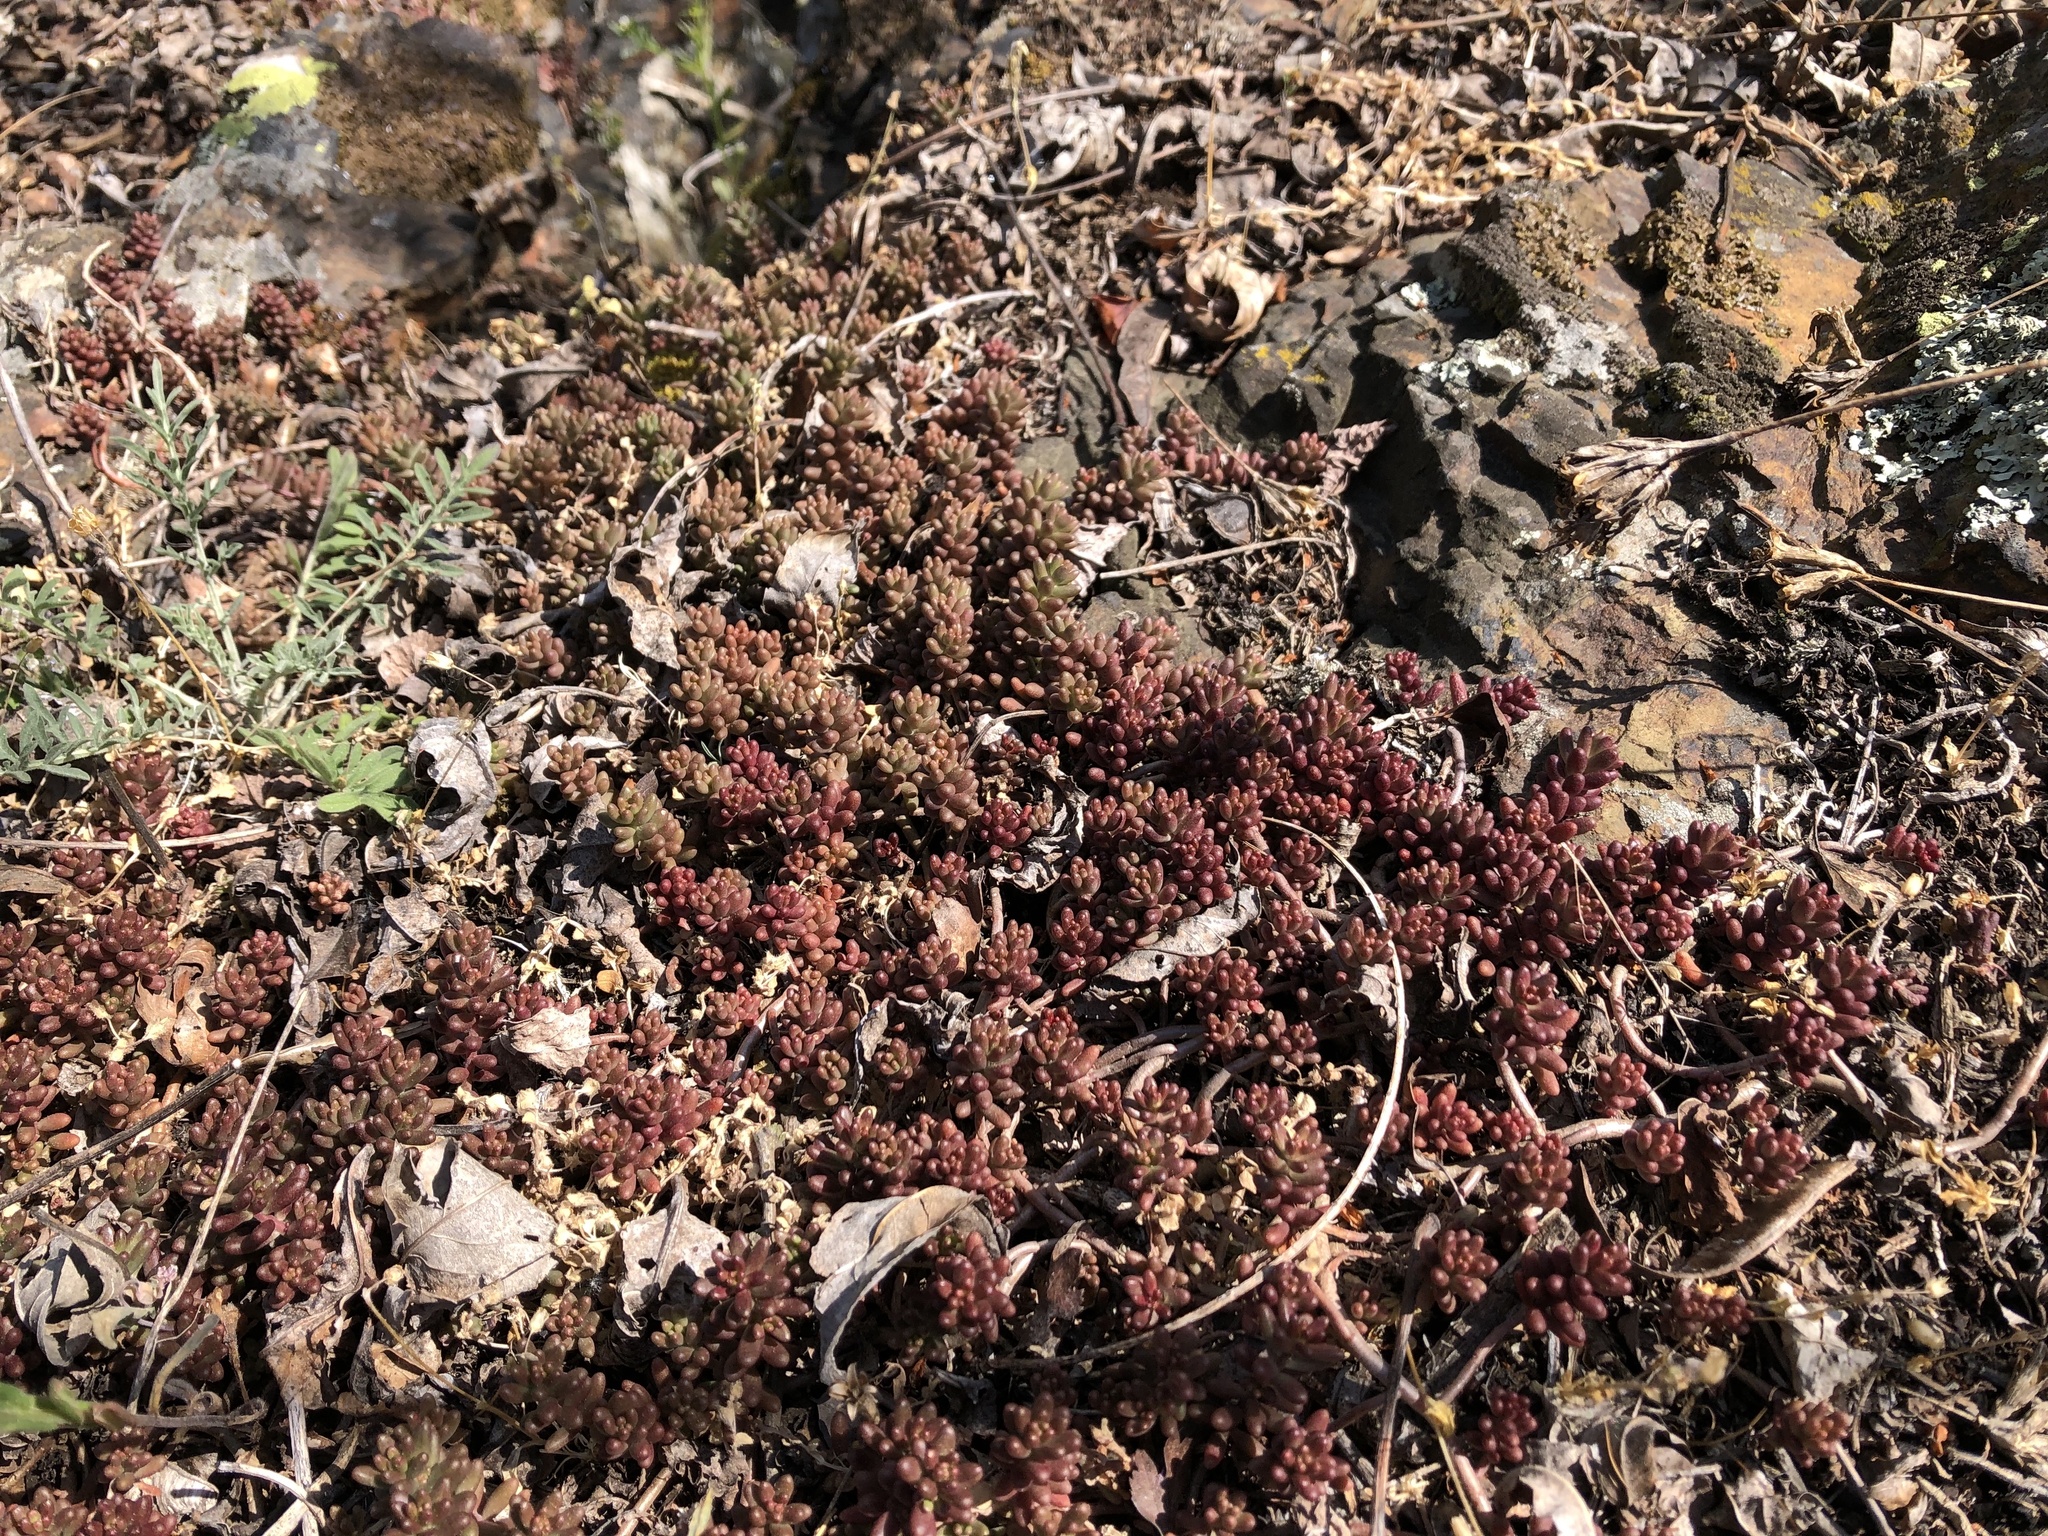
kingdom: Plantae
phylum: Tracheophyta
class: Magnoliopsida
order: Saxifragales
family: Crassulaceae
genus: Sedum
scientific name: Sedum album
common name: White stonecrop
